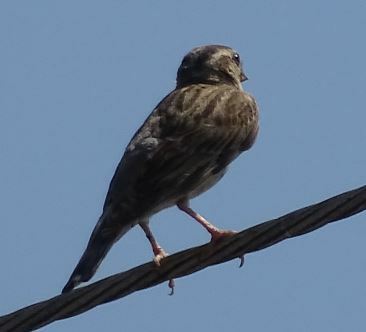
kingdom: Animalia
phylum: Chordata
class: Aves
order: Passeriformes
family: Passeridae
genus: Petronia
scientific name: Petronia petronia
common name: Rock sparrow
